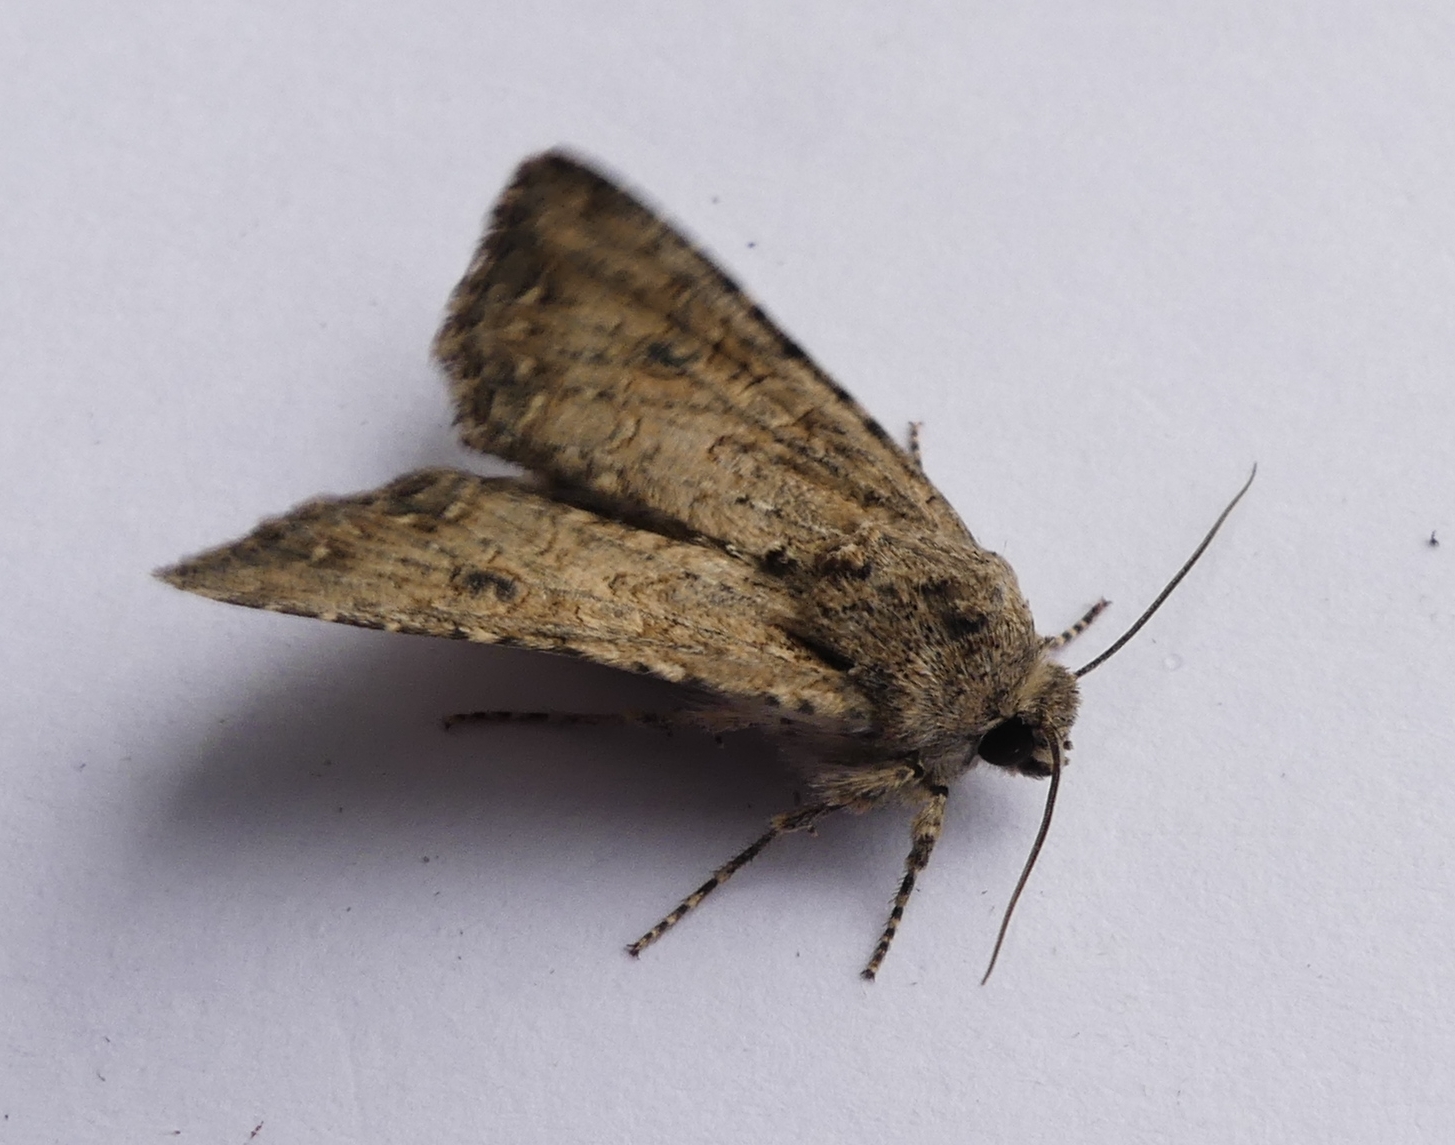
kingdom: Animalia
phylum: Arthropoda
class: Insecta
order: Lepidoptera
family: Noctuidae
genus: Anarta
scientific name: Anarta trifolii
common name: Clover cutworm moth
